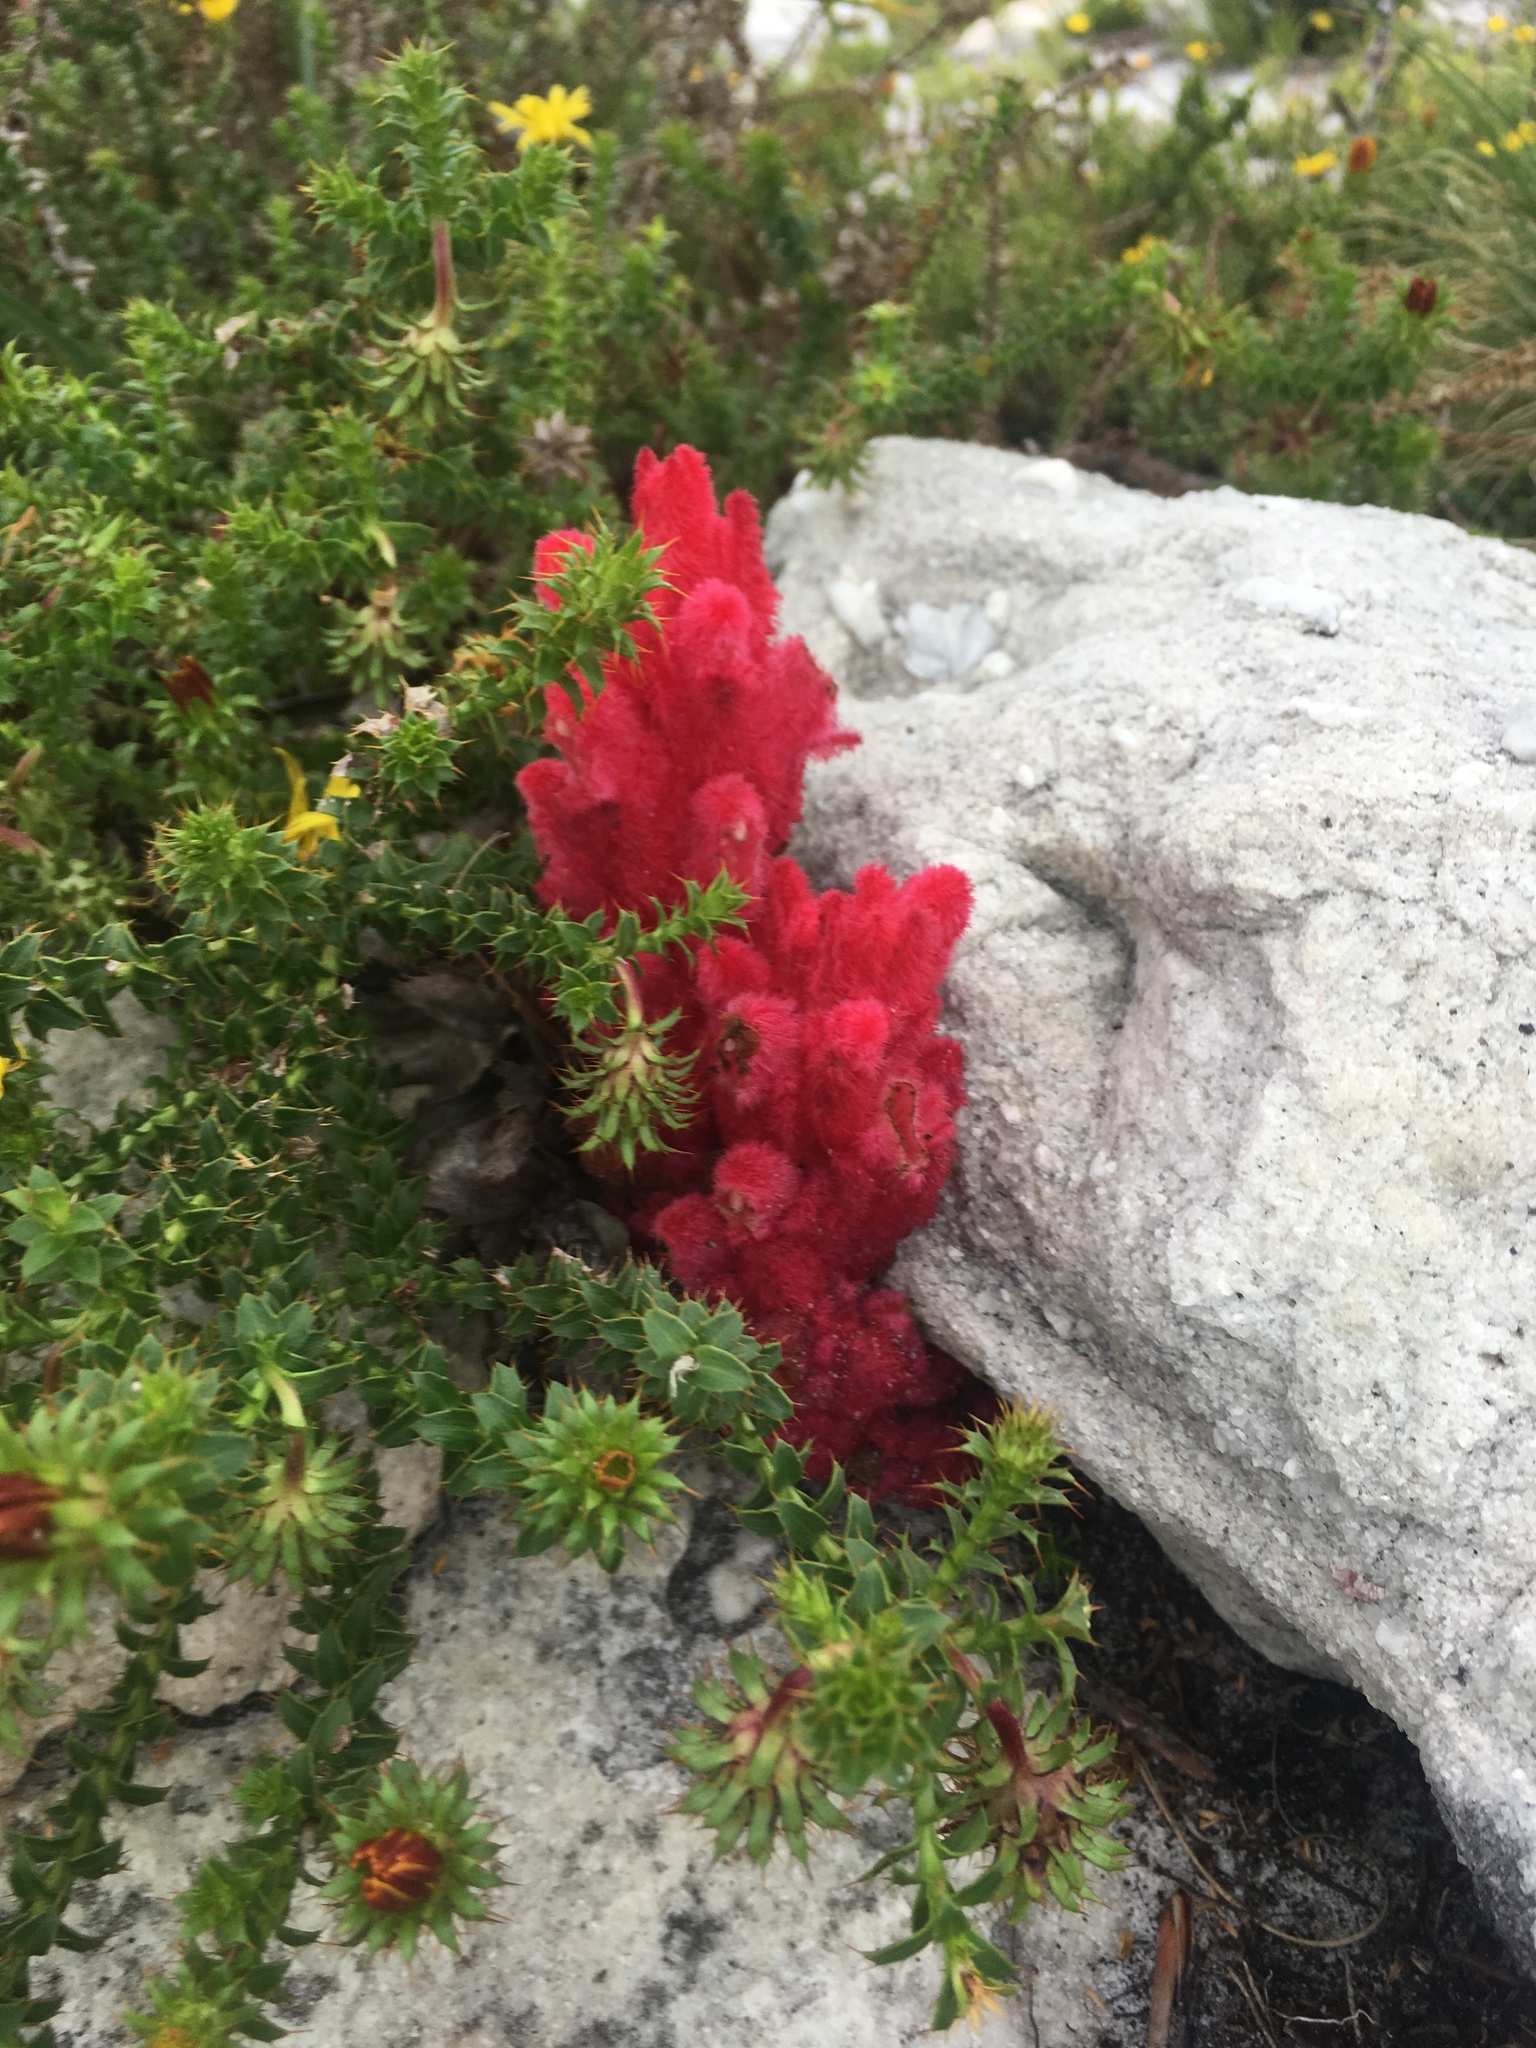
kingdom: Plantae
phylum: Tracheophyta
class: Magnoliopsida
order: Lamiales
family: Orobanchaceae
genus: Hyobanche
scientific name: Hyobanche sanguinea
